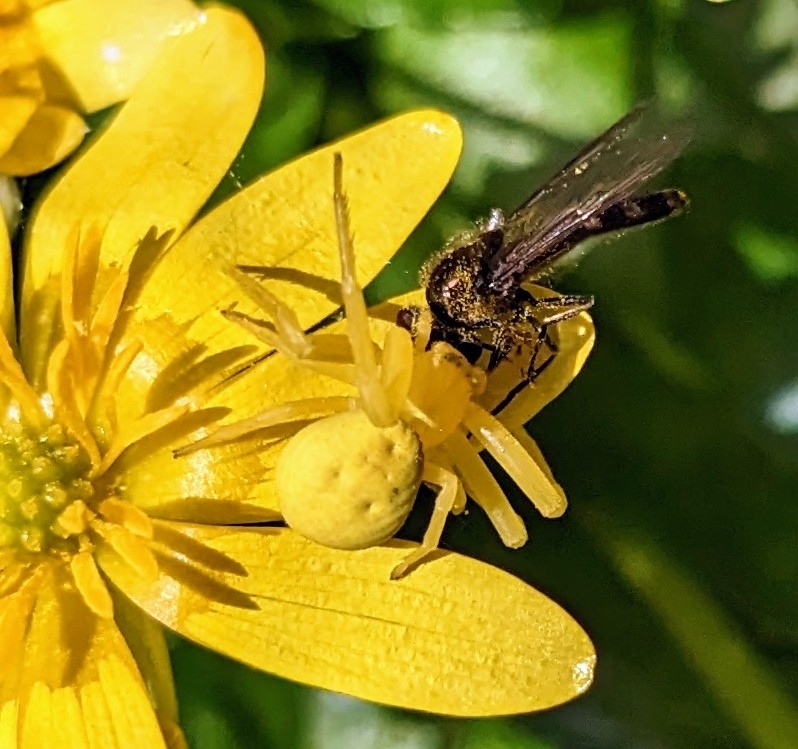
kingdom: Animalia
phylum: Arthropoda
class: Arachnida
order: Araneae
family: Thomisidae
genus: Misumena
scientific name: Misumena vatia
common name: Goldenrod crab spider
